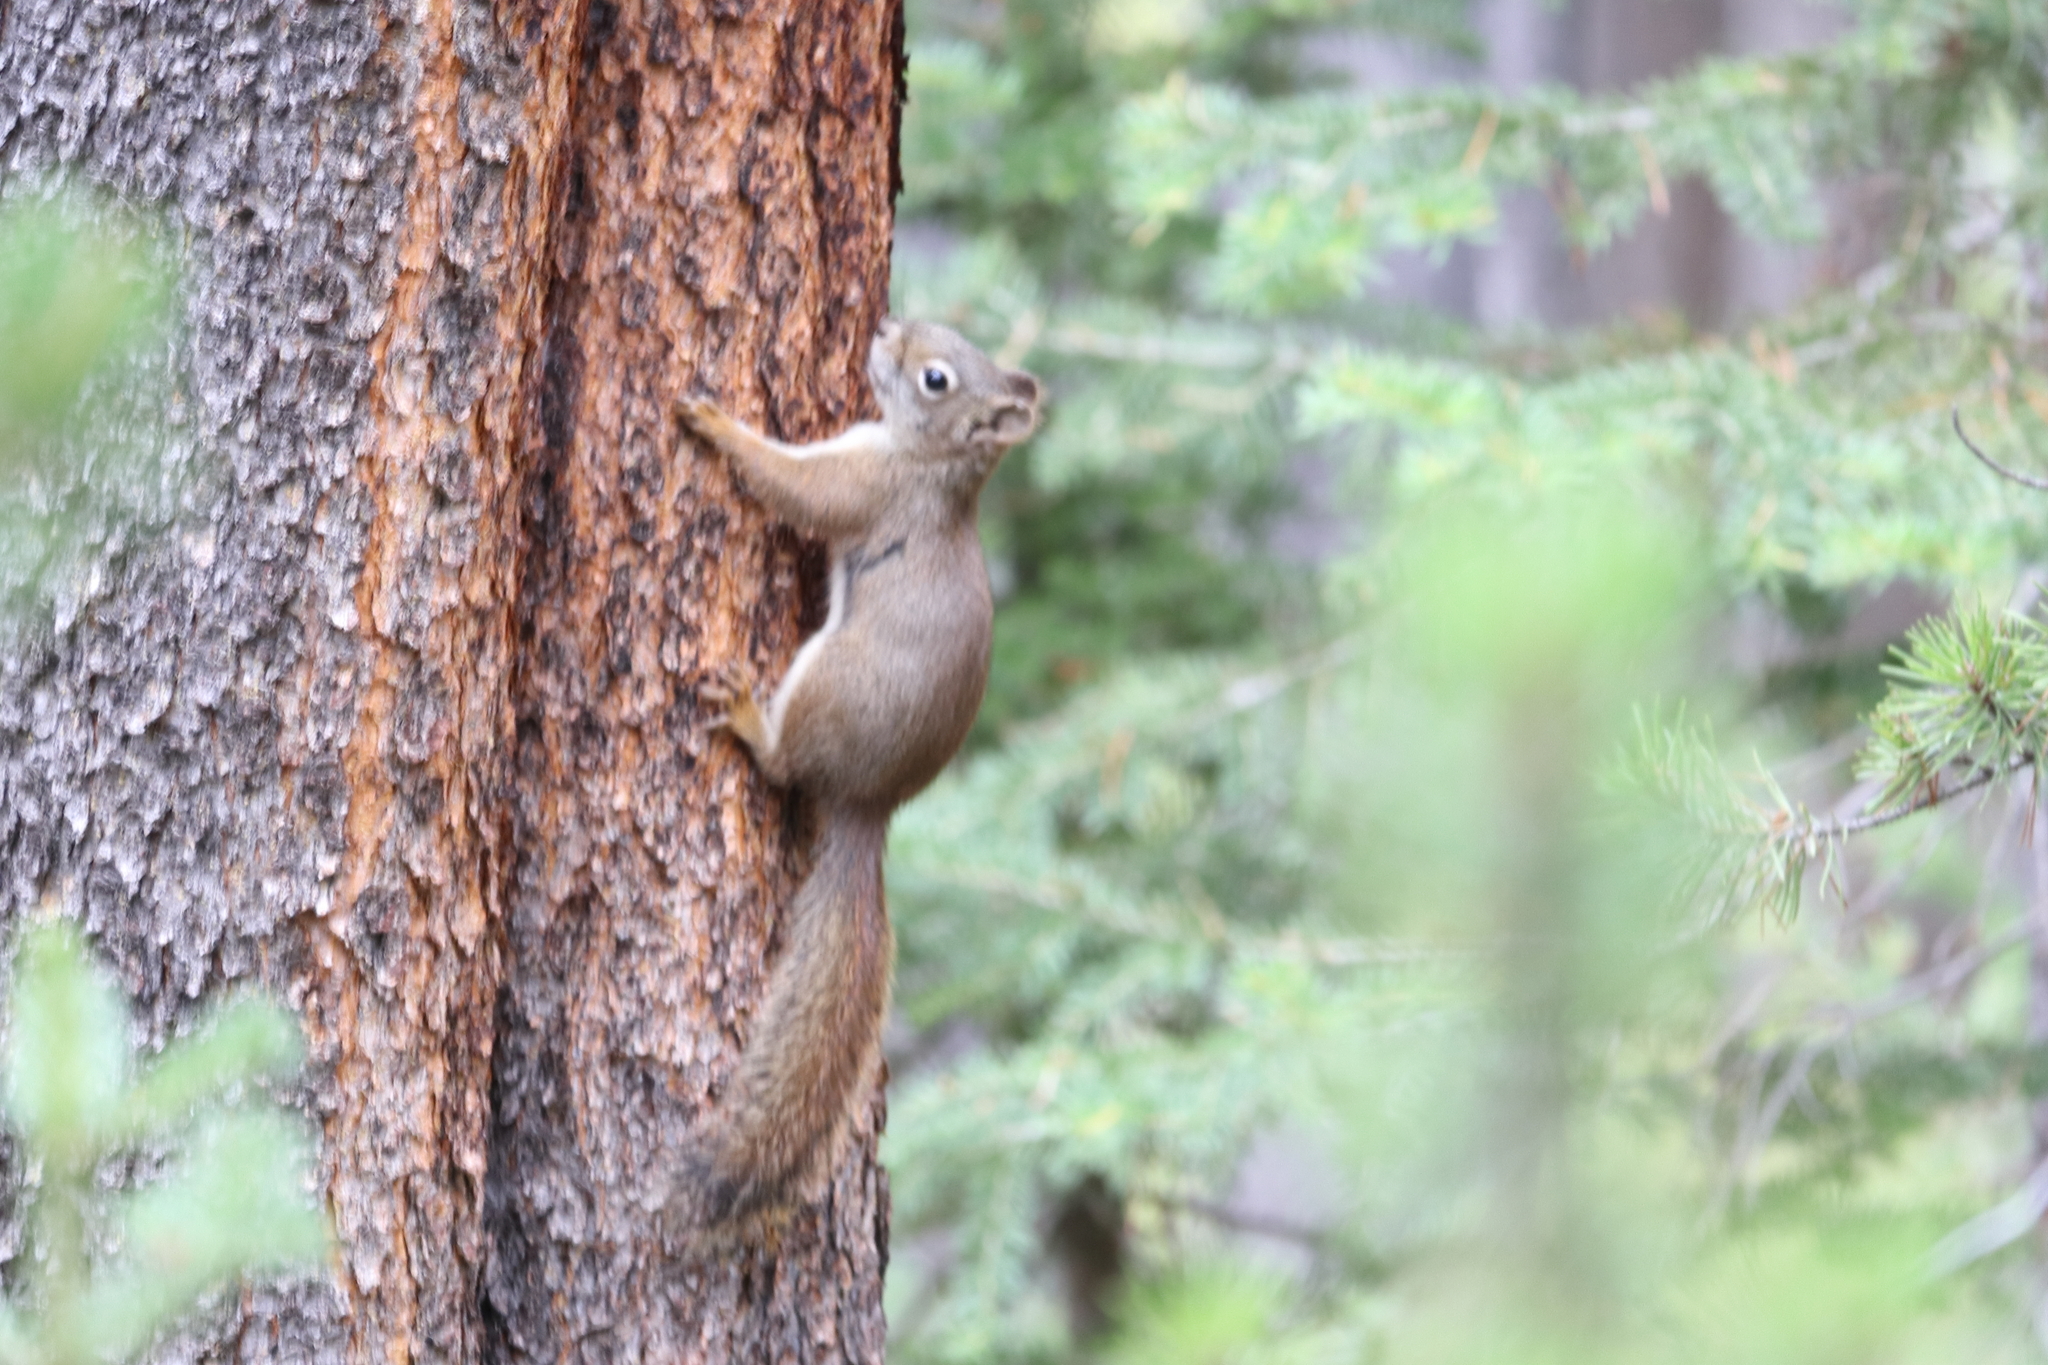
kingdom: Animalia
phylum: Chordata
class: Mammalia
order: Rodentia
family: Sciuridae
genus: Tamiasciurus
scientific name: Tamiasciurus hudsonicus
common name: Red squirrel
